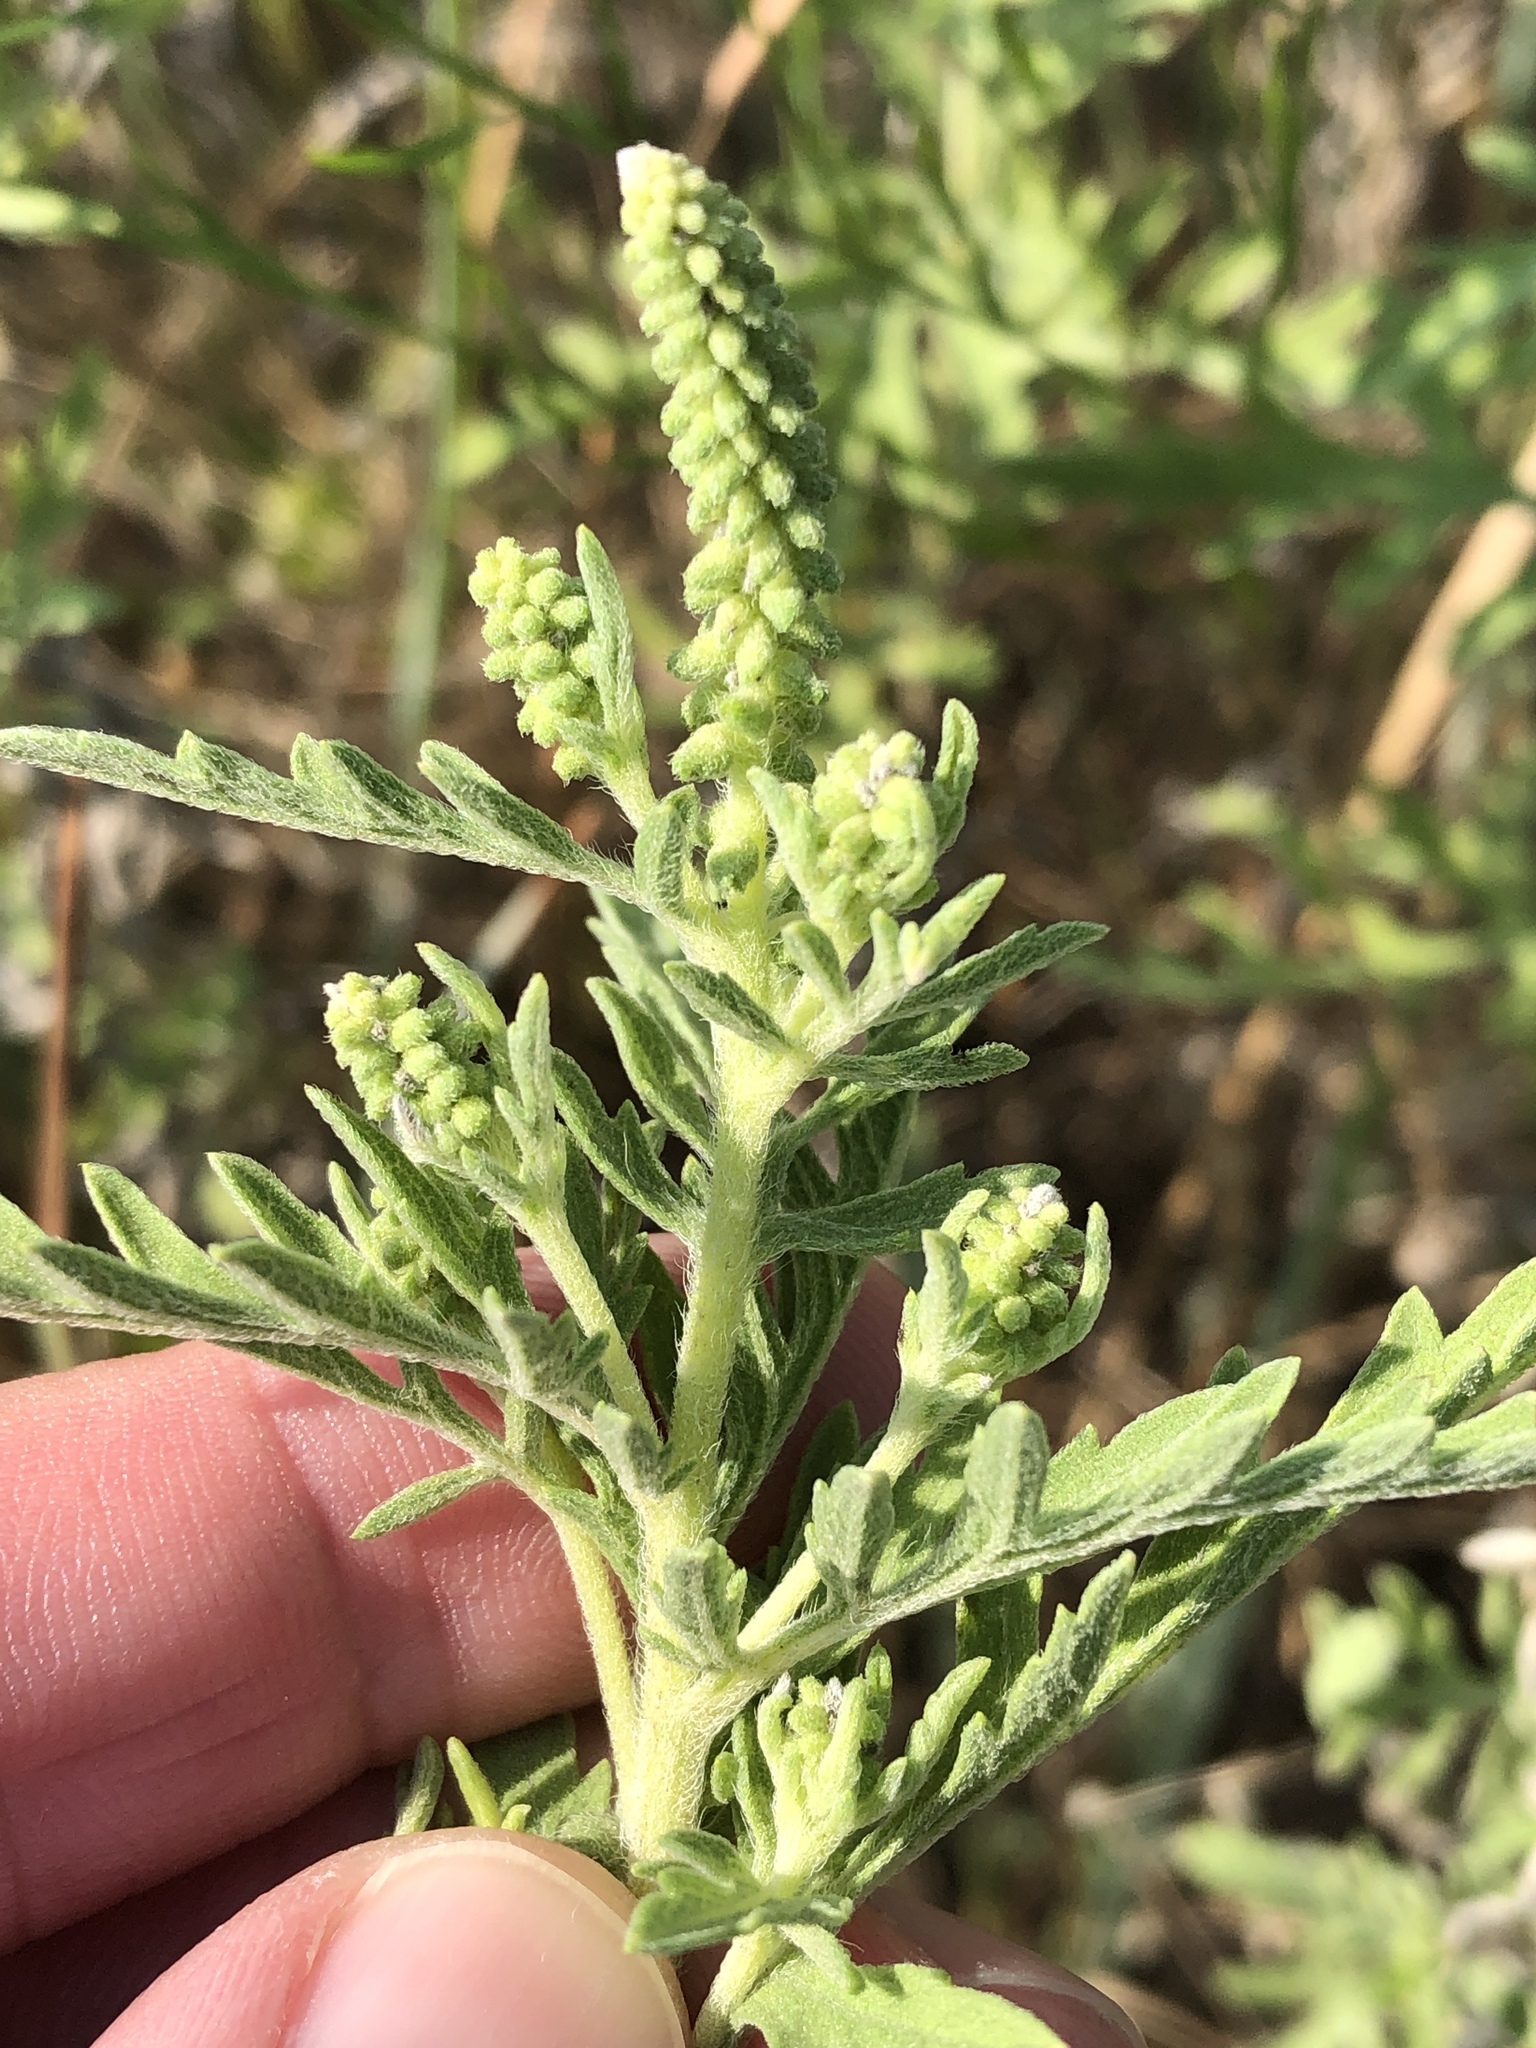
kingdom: Plantae
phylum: Tracheophyta
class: Magnoliopsida
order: Asterales
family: Asteraceae
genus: Ambrosia
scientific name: Ambrosia psilostachya
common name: Perennial ragweed
